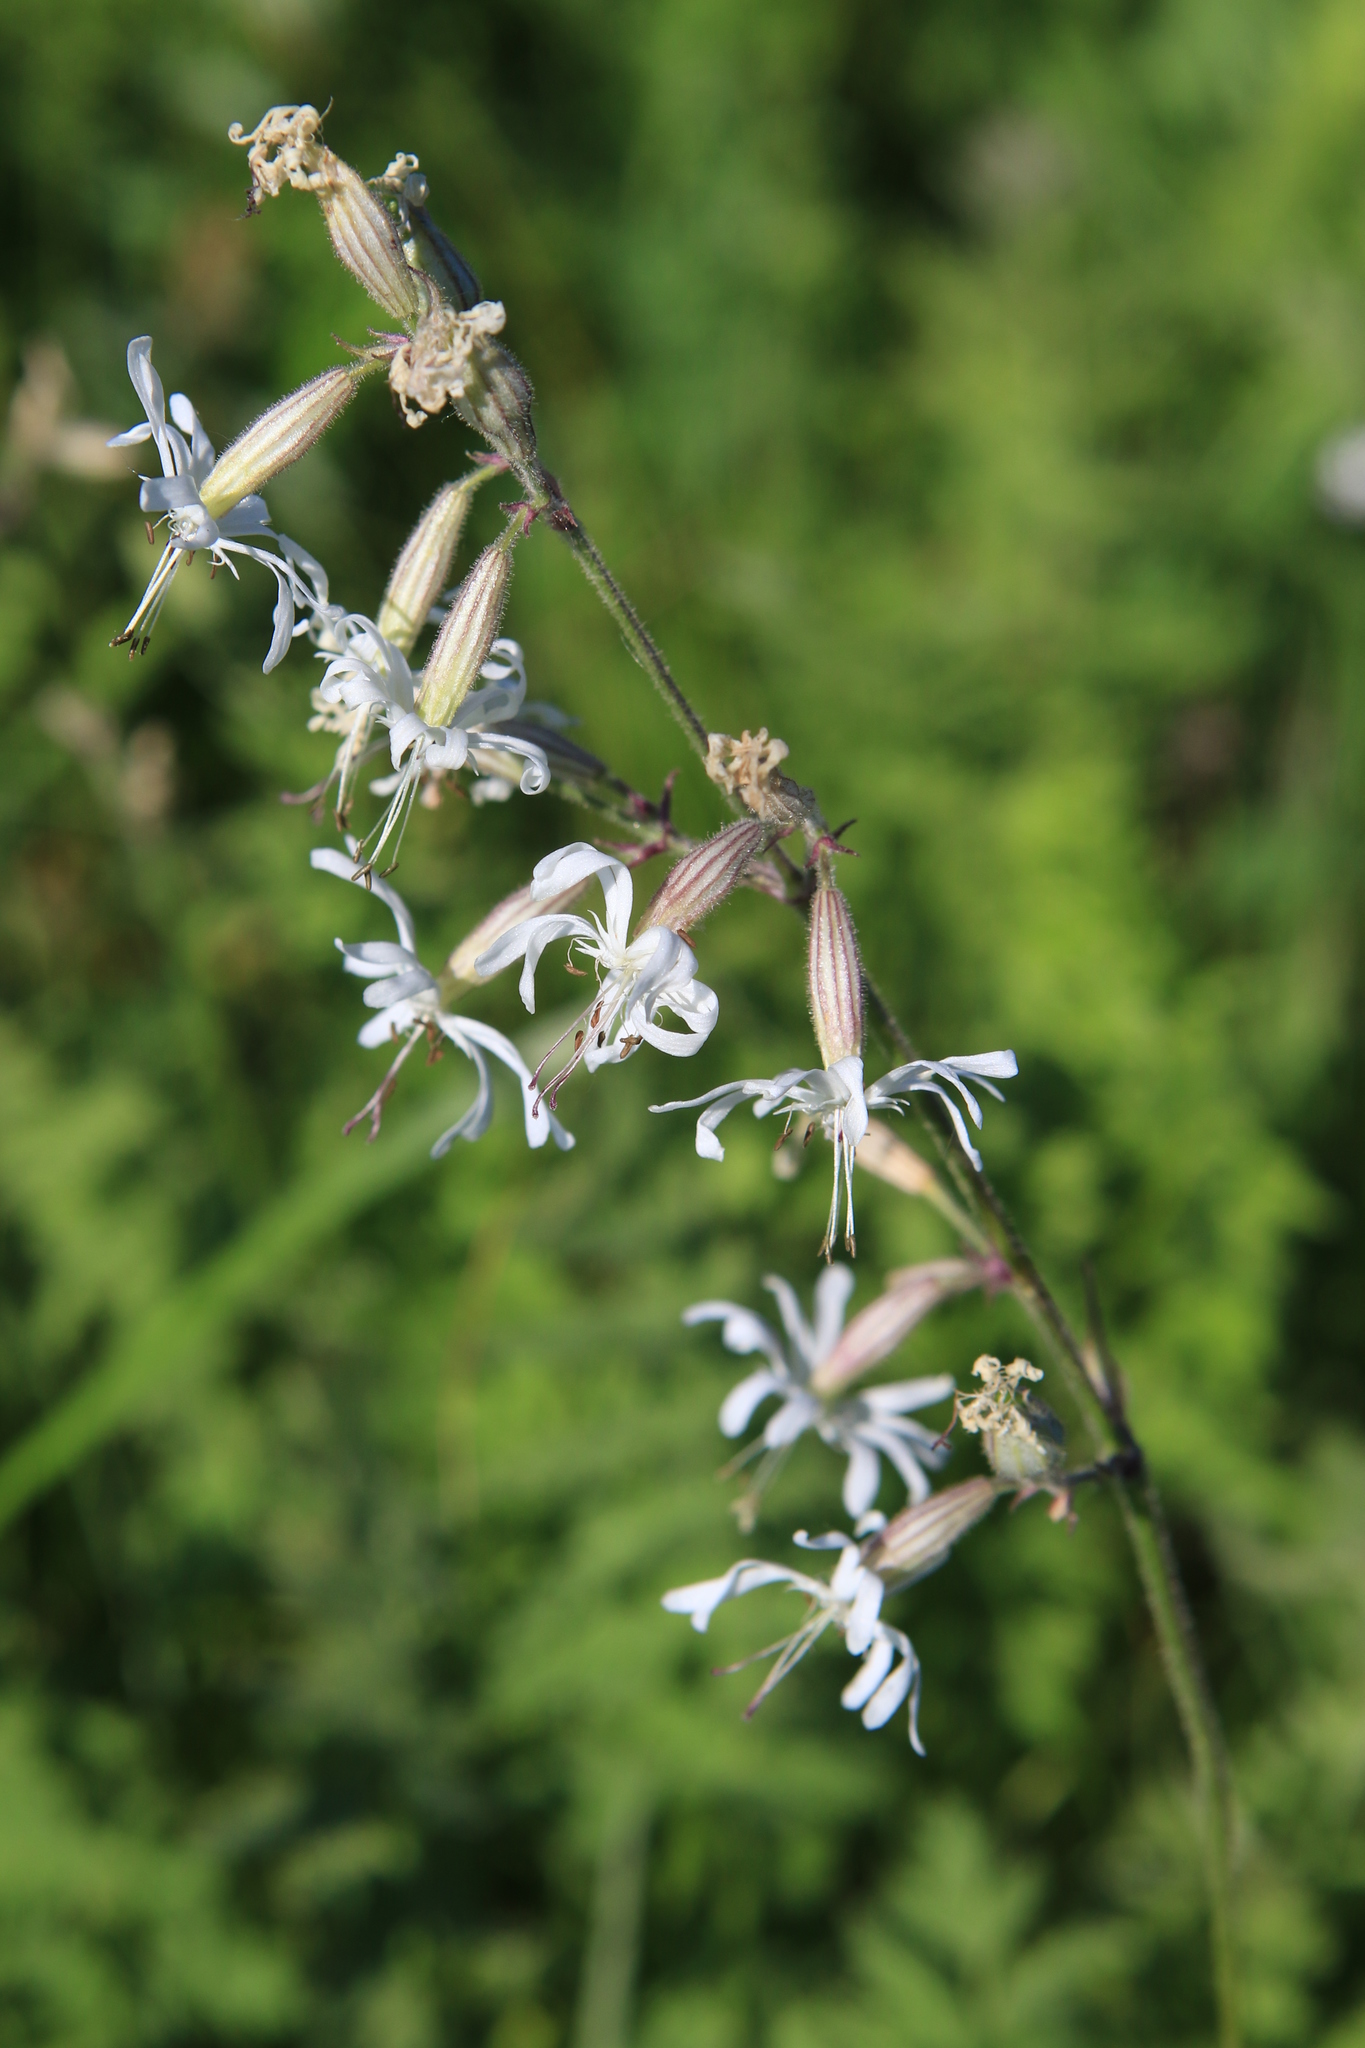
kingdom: Plantae
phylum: Tracheophyta
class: Magnoliopsida
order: Caryophyllales
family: Caryophyllaceae
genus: Silene
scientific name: Silene nutans
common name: Nottingham catchfly
